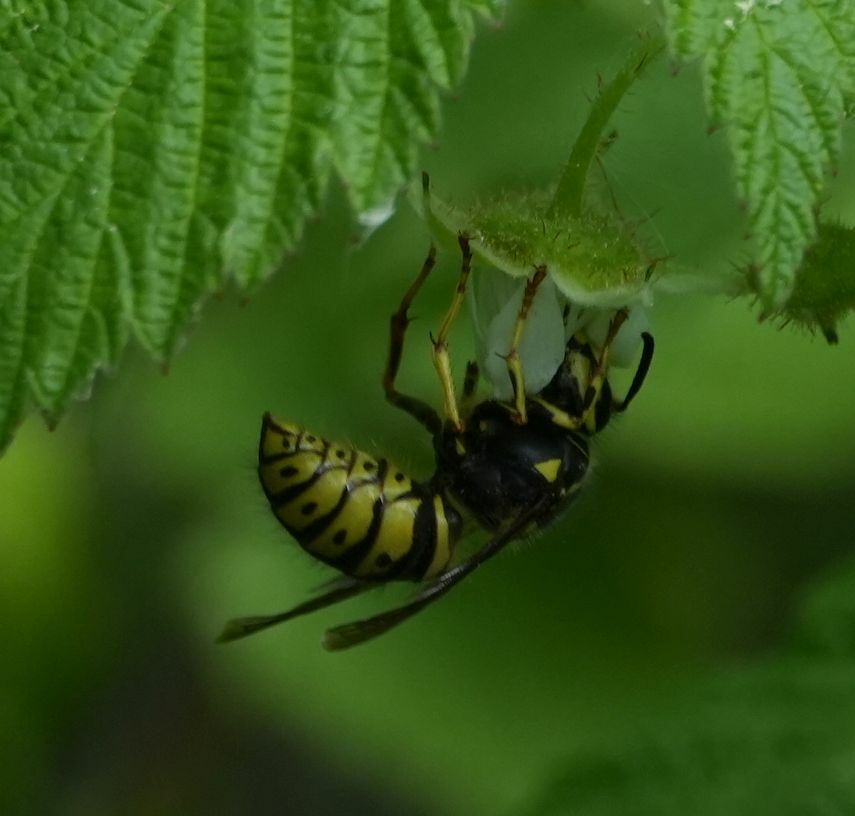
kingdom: Animalia
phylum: Arthropoda
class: Insecta
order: Hymenoptera
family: Vespidae
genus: Dolichovespula
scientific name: Dolichovespula arenaria
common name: Aerial yellowjacket
